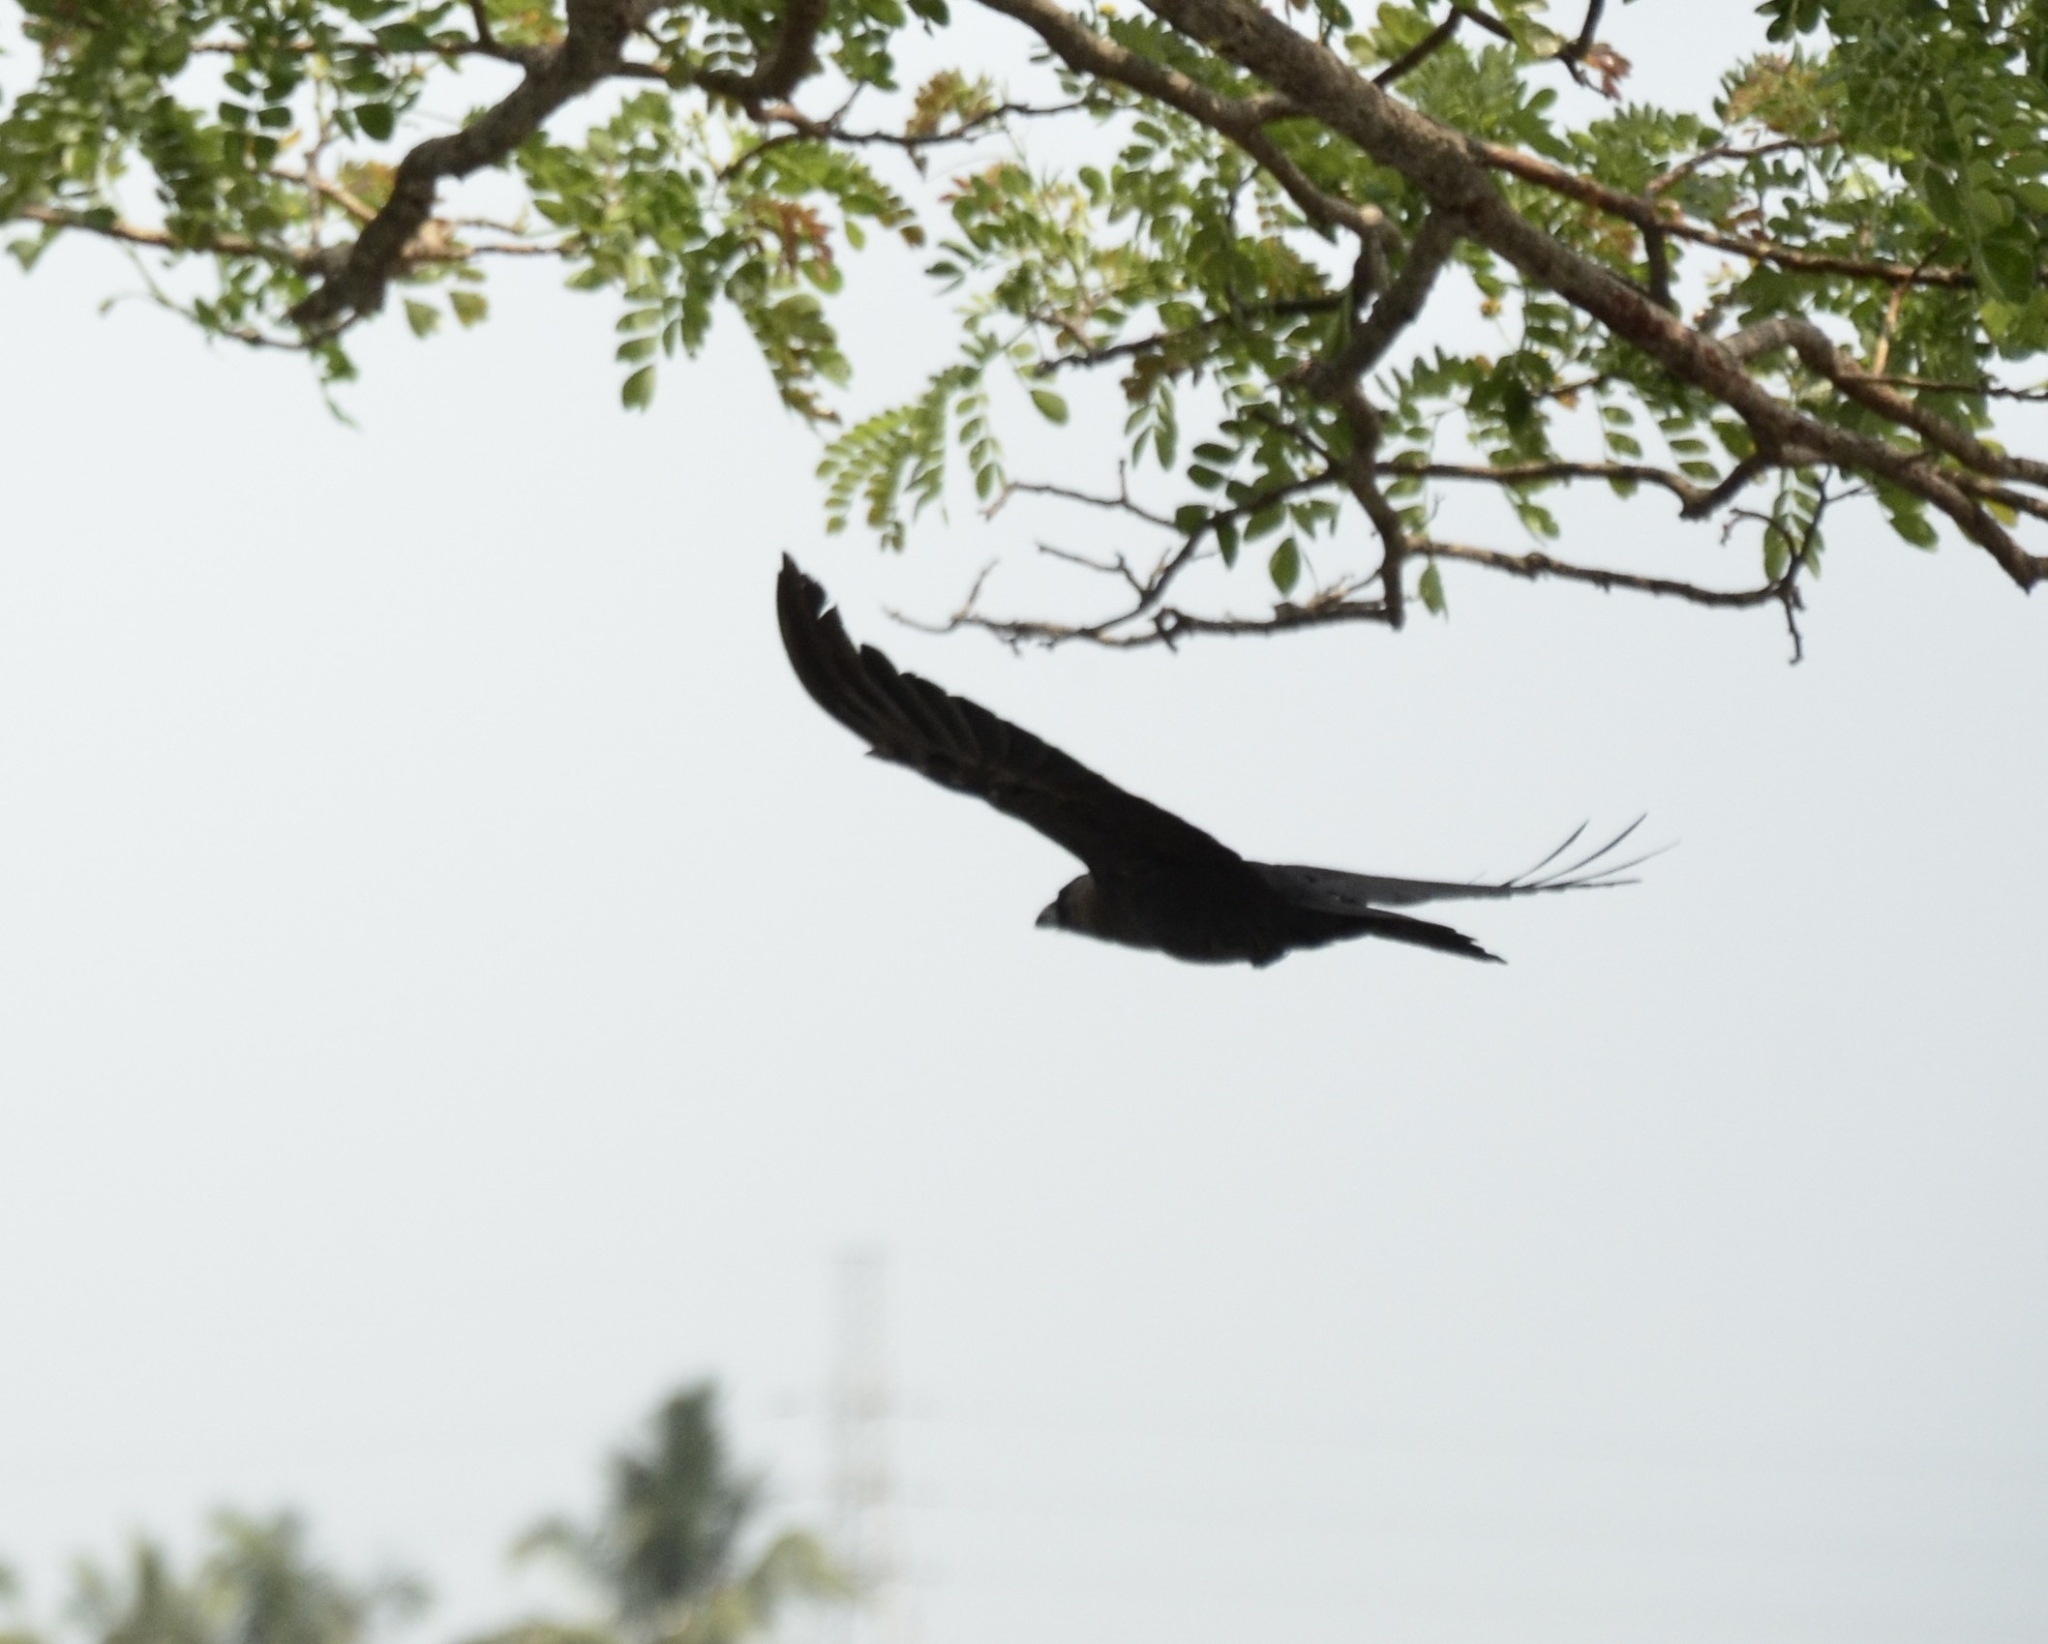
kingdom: Animalia
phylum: Chordata
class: Aves
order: Passeriformes
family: Corvidae
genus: Corvus
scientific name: Corvus splendens
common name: House crow
